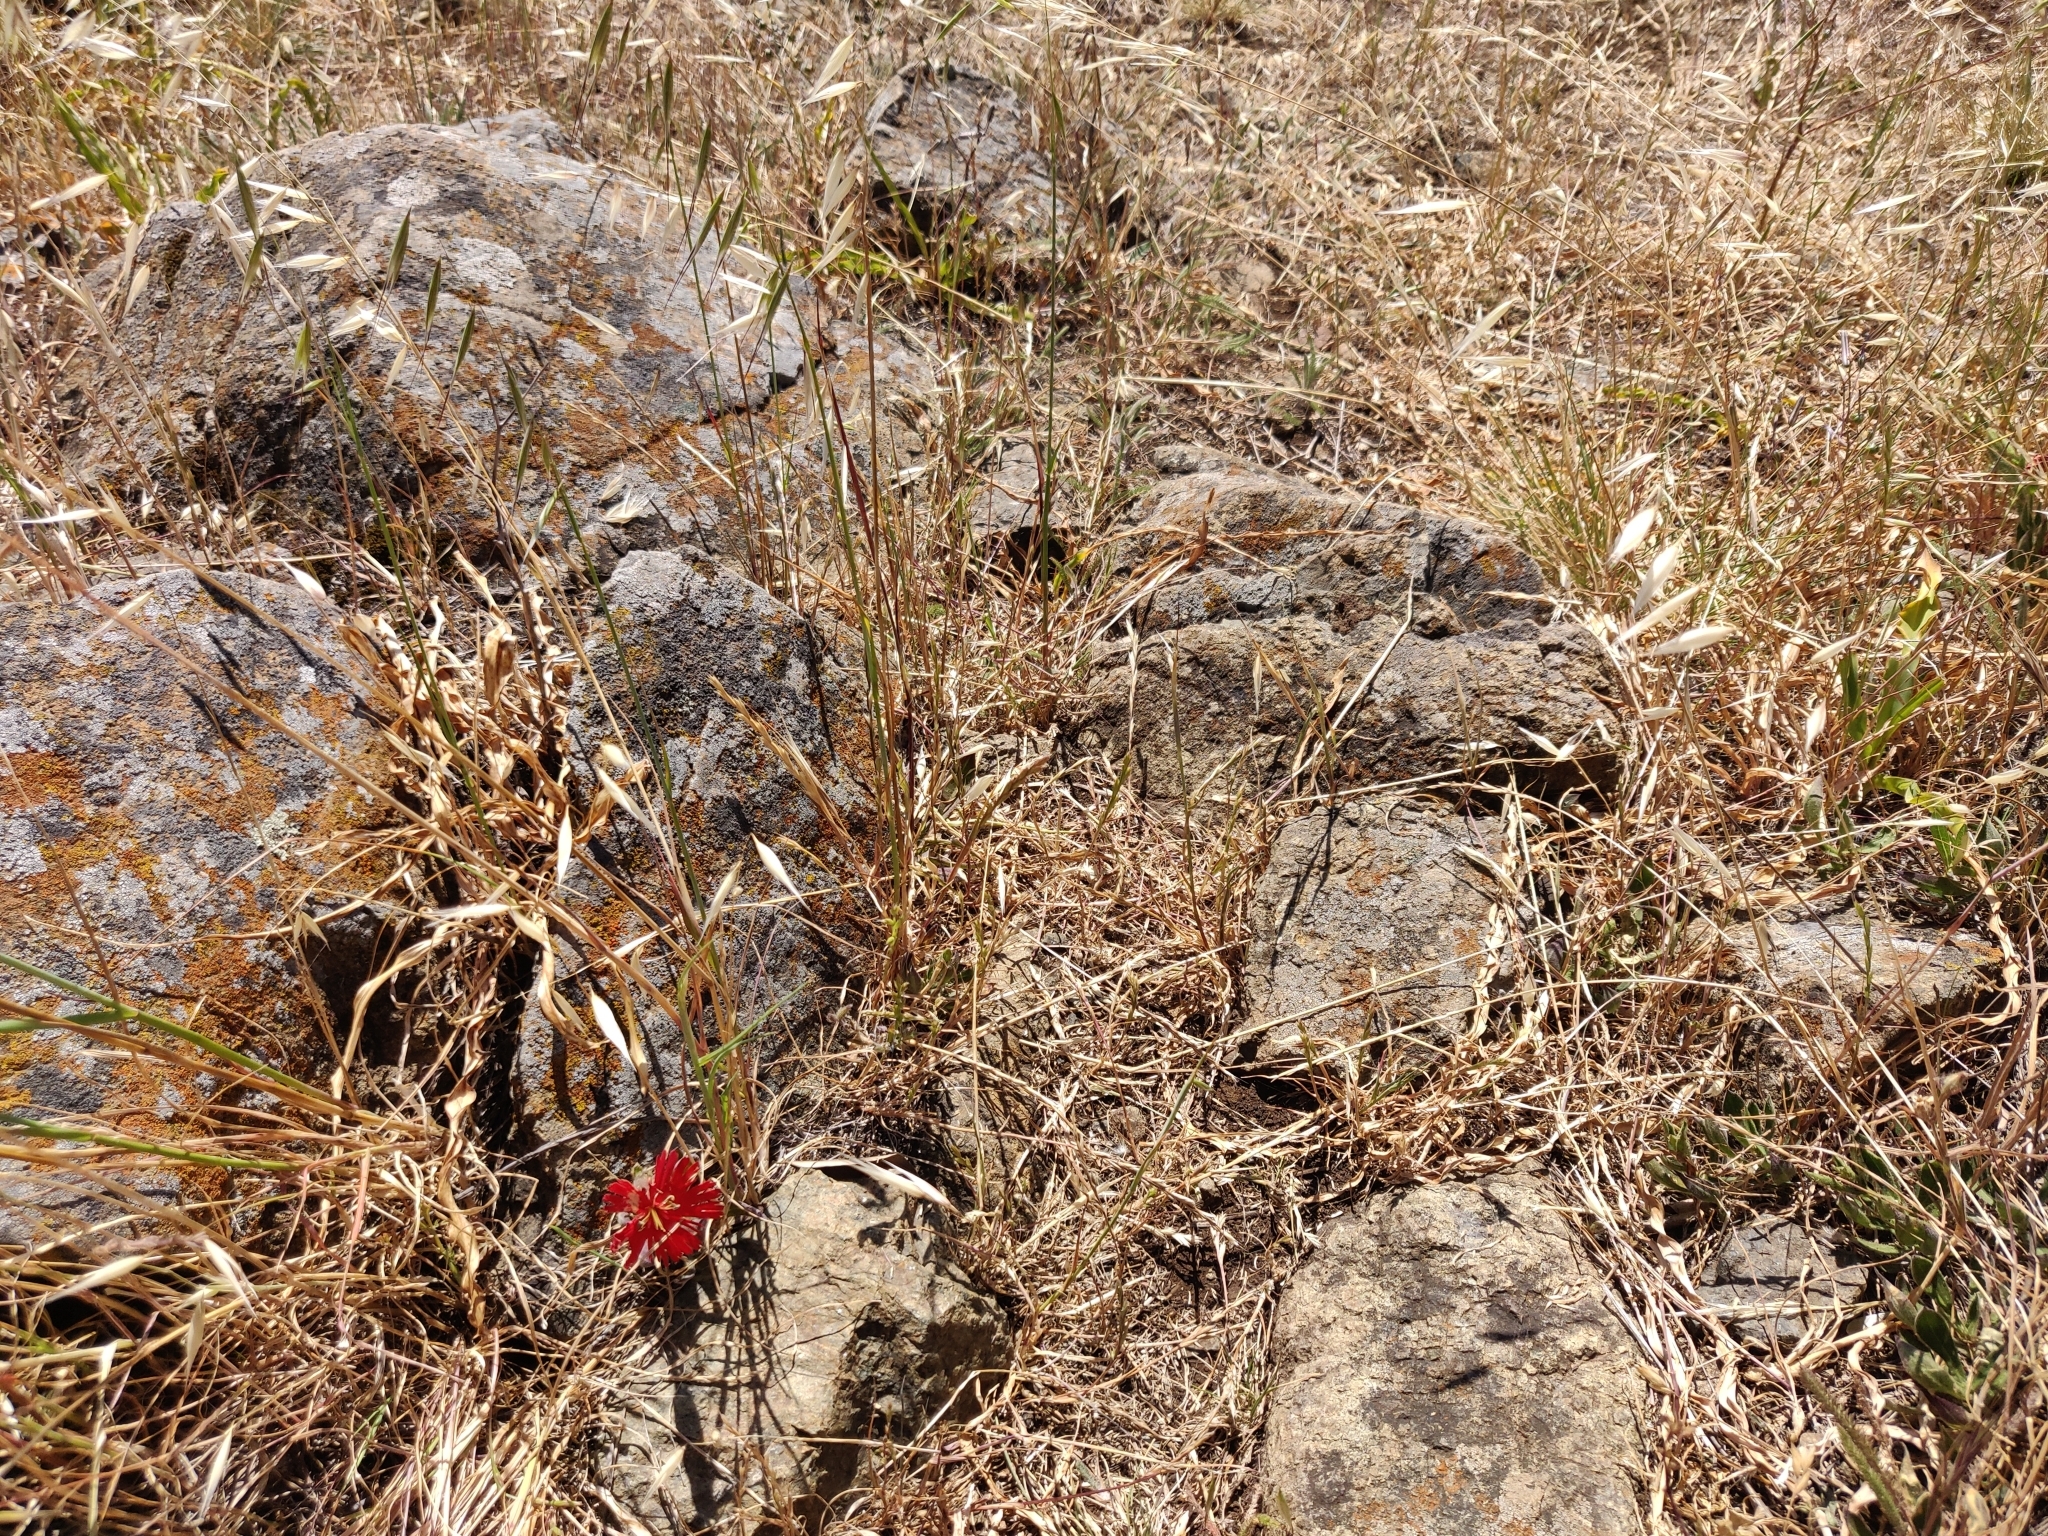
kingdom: Plantae
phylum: Tracheophyta
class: Magnoliopsida
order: Caryophyllales
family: Caryophyllaceae
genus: Silene
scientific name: Silene laciniata
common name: Indian-pink
